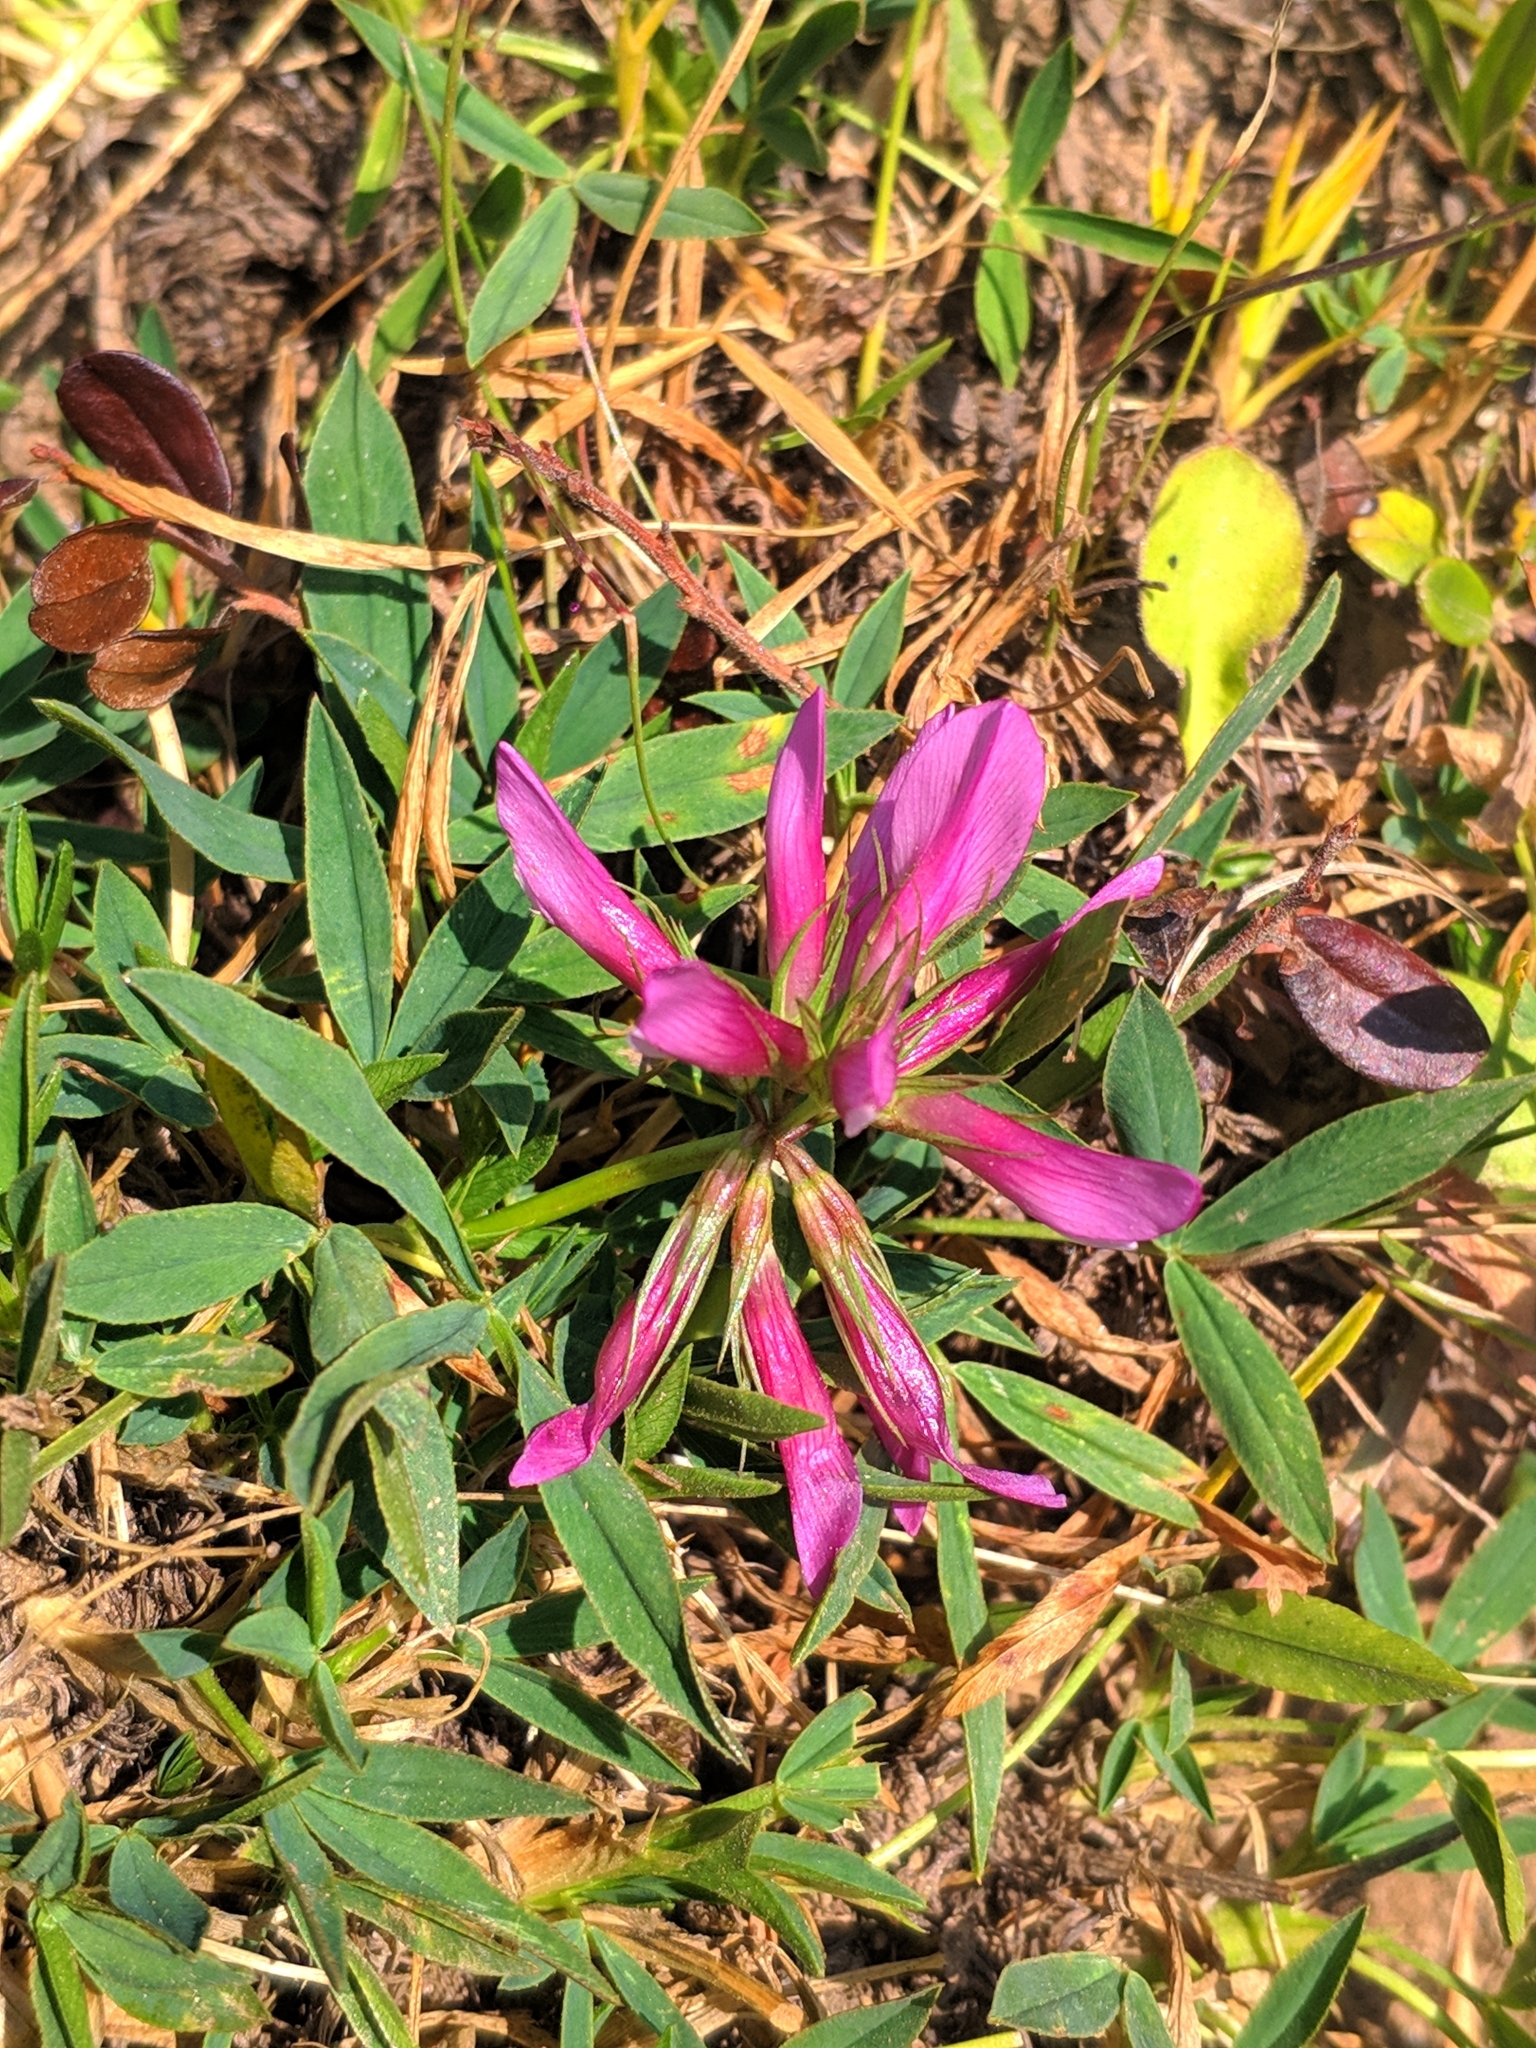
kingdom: Plantae
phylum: Tracheophyta
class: Magnoliopsida
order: Fabales
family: Fabaceae
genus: Trifolium
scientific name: Trifolium alpinum
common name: Alpine clover
